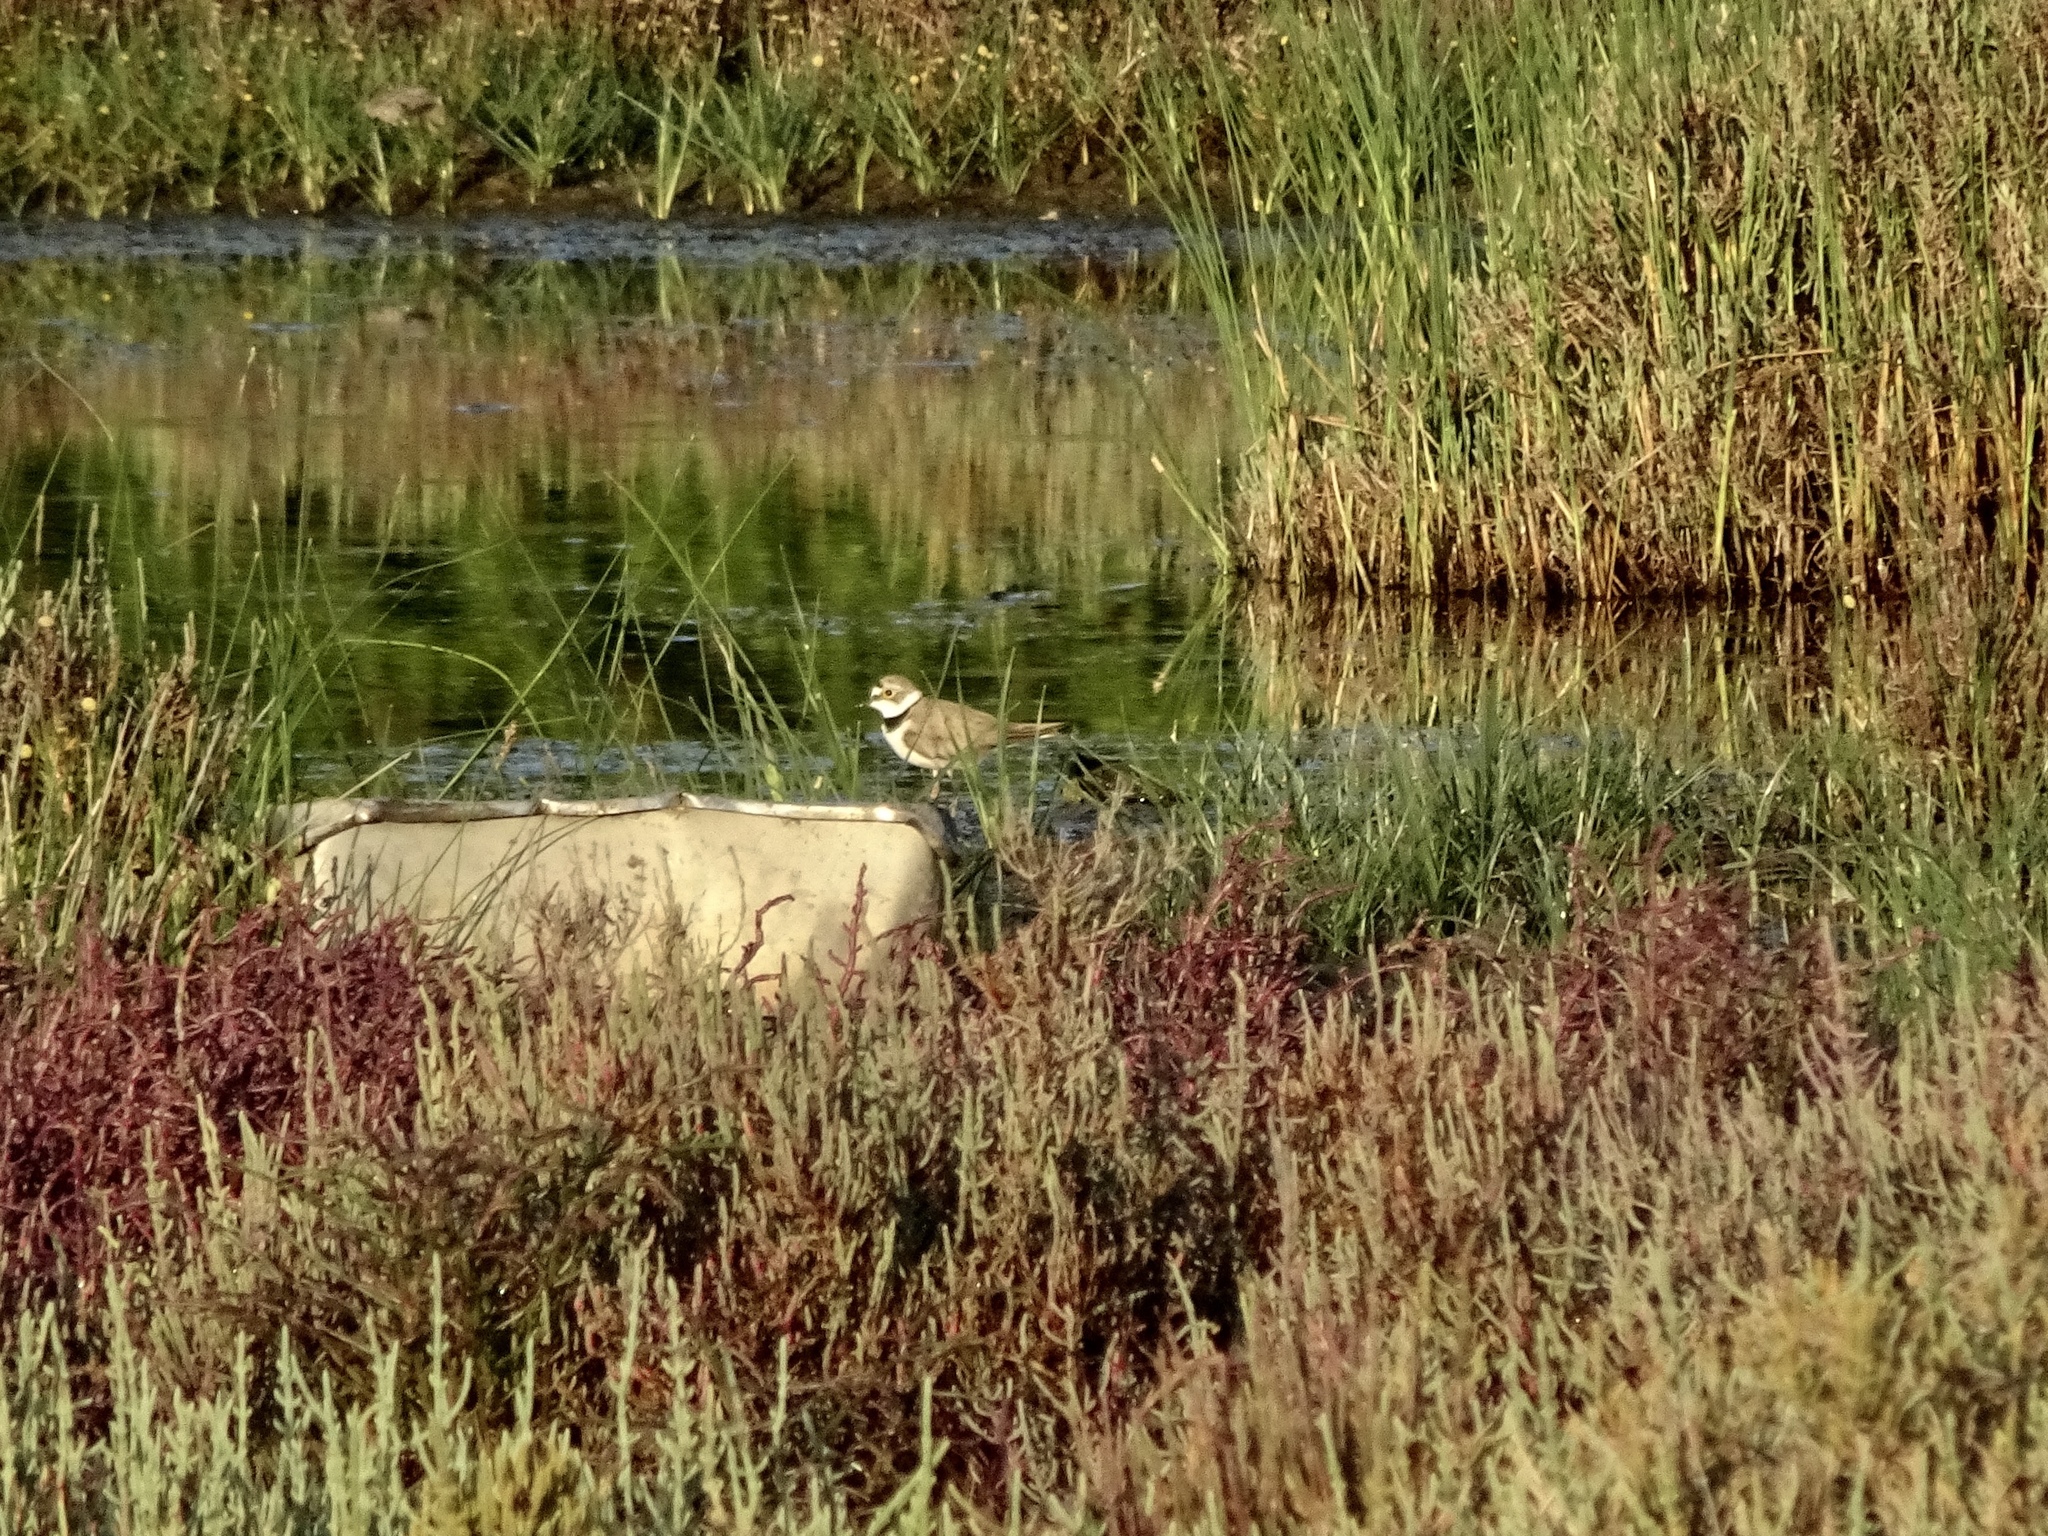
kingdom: Animalia
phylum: Chordata
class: Aves
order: Charadriiformes
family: Charadriidae
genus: Charadrius
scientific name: Charadrius dubius
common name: Little ringed plover
